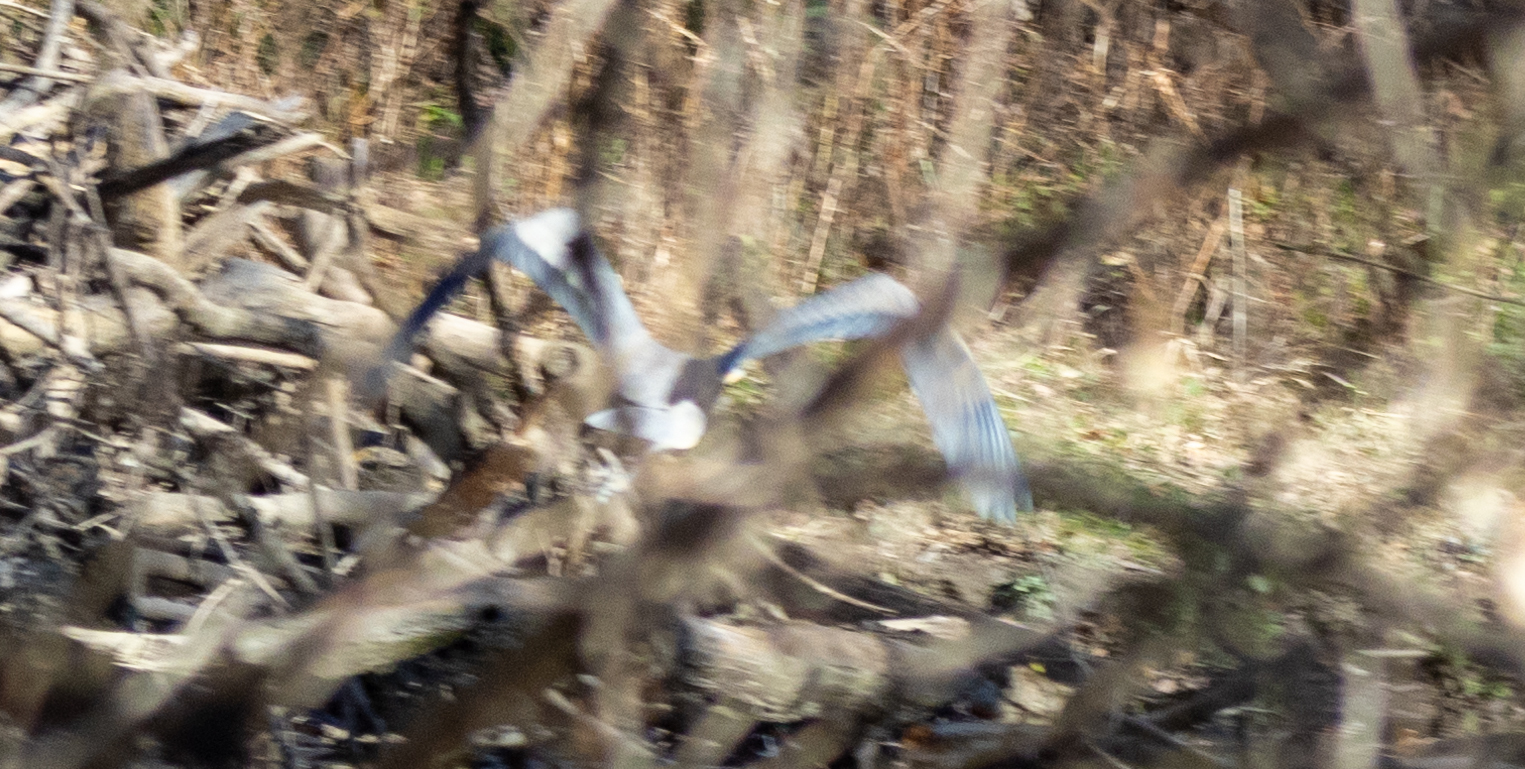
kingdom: Animalia
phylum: Chordata
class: Aves
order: Pelecaniformes
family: Ardeidae
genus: Ardea
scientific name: Ardea herodias
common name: Great blue heron
